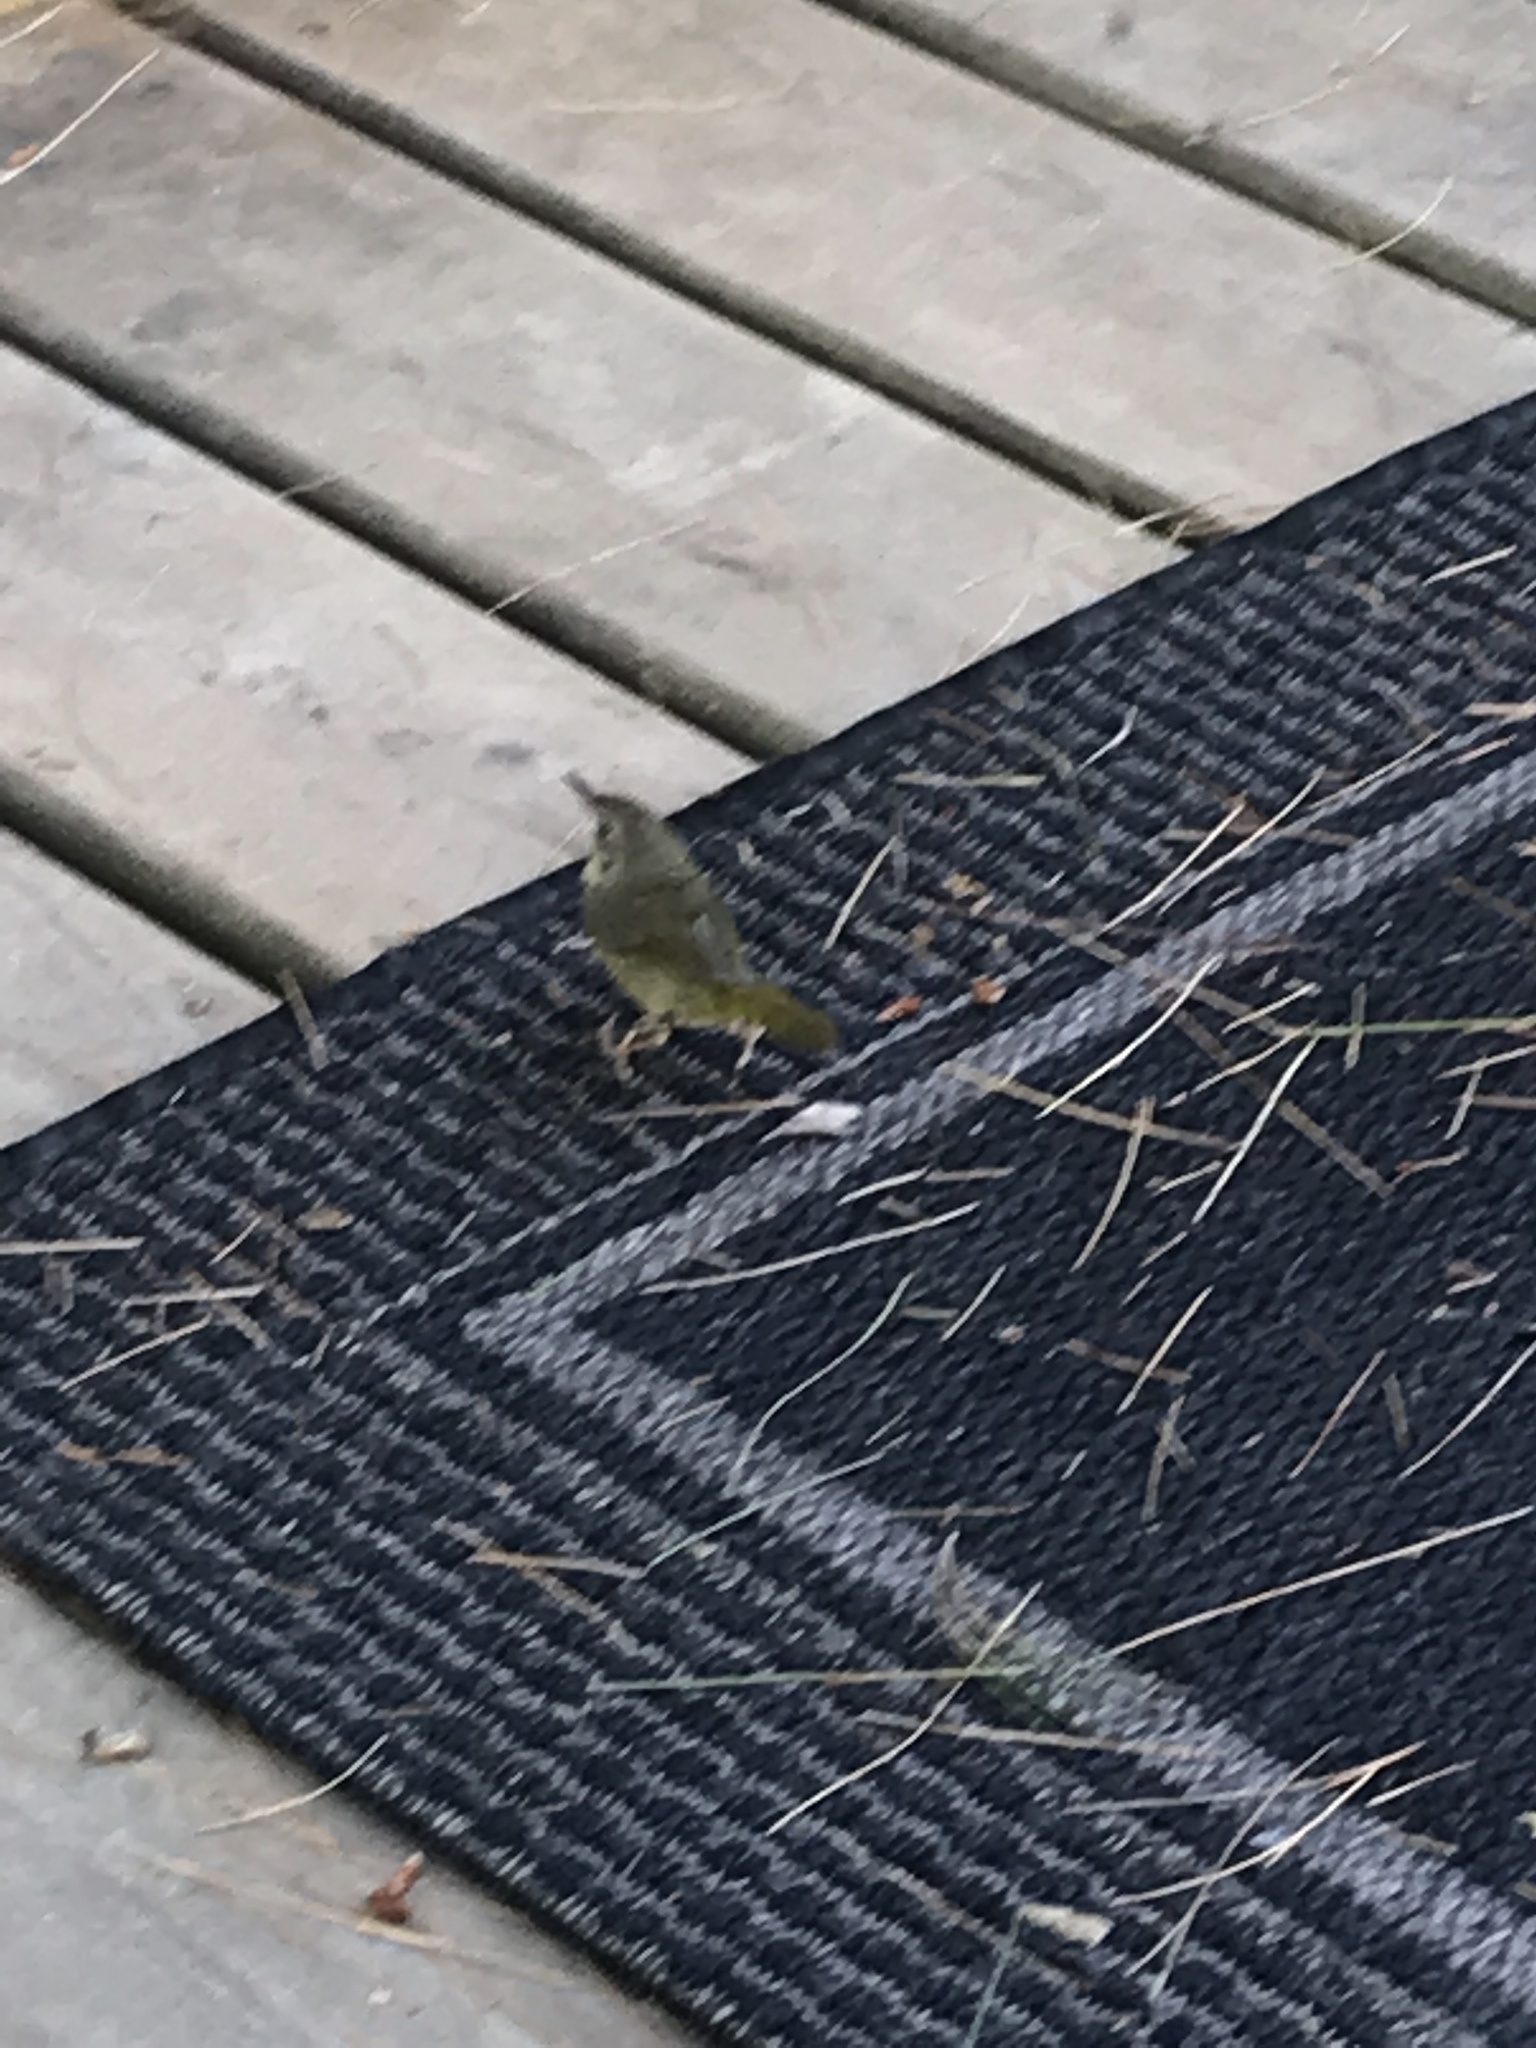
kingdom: Animalia
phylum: Chordata
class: Aves
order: Passeriformes
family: Parulidae
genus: Geothlypis
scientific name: Geothlypis trichas
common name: Common yellowthroat
